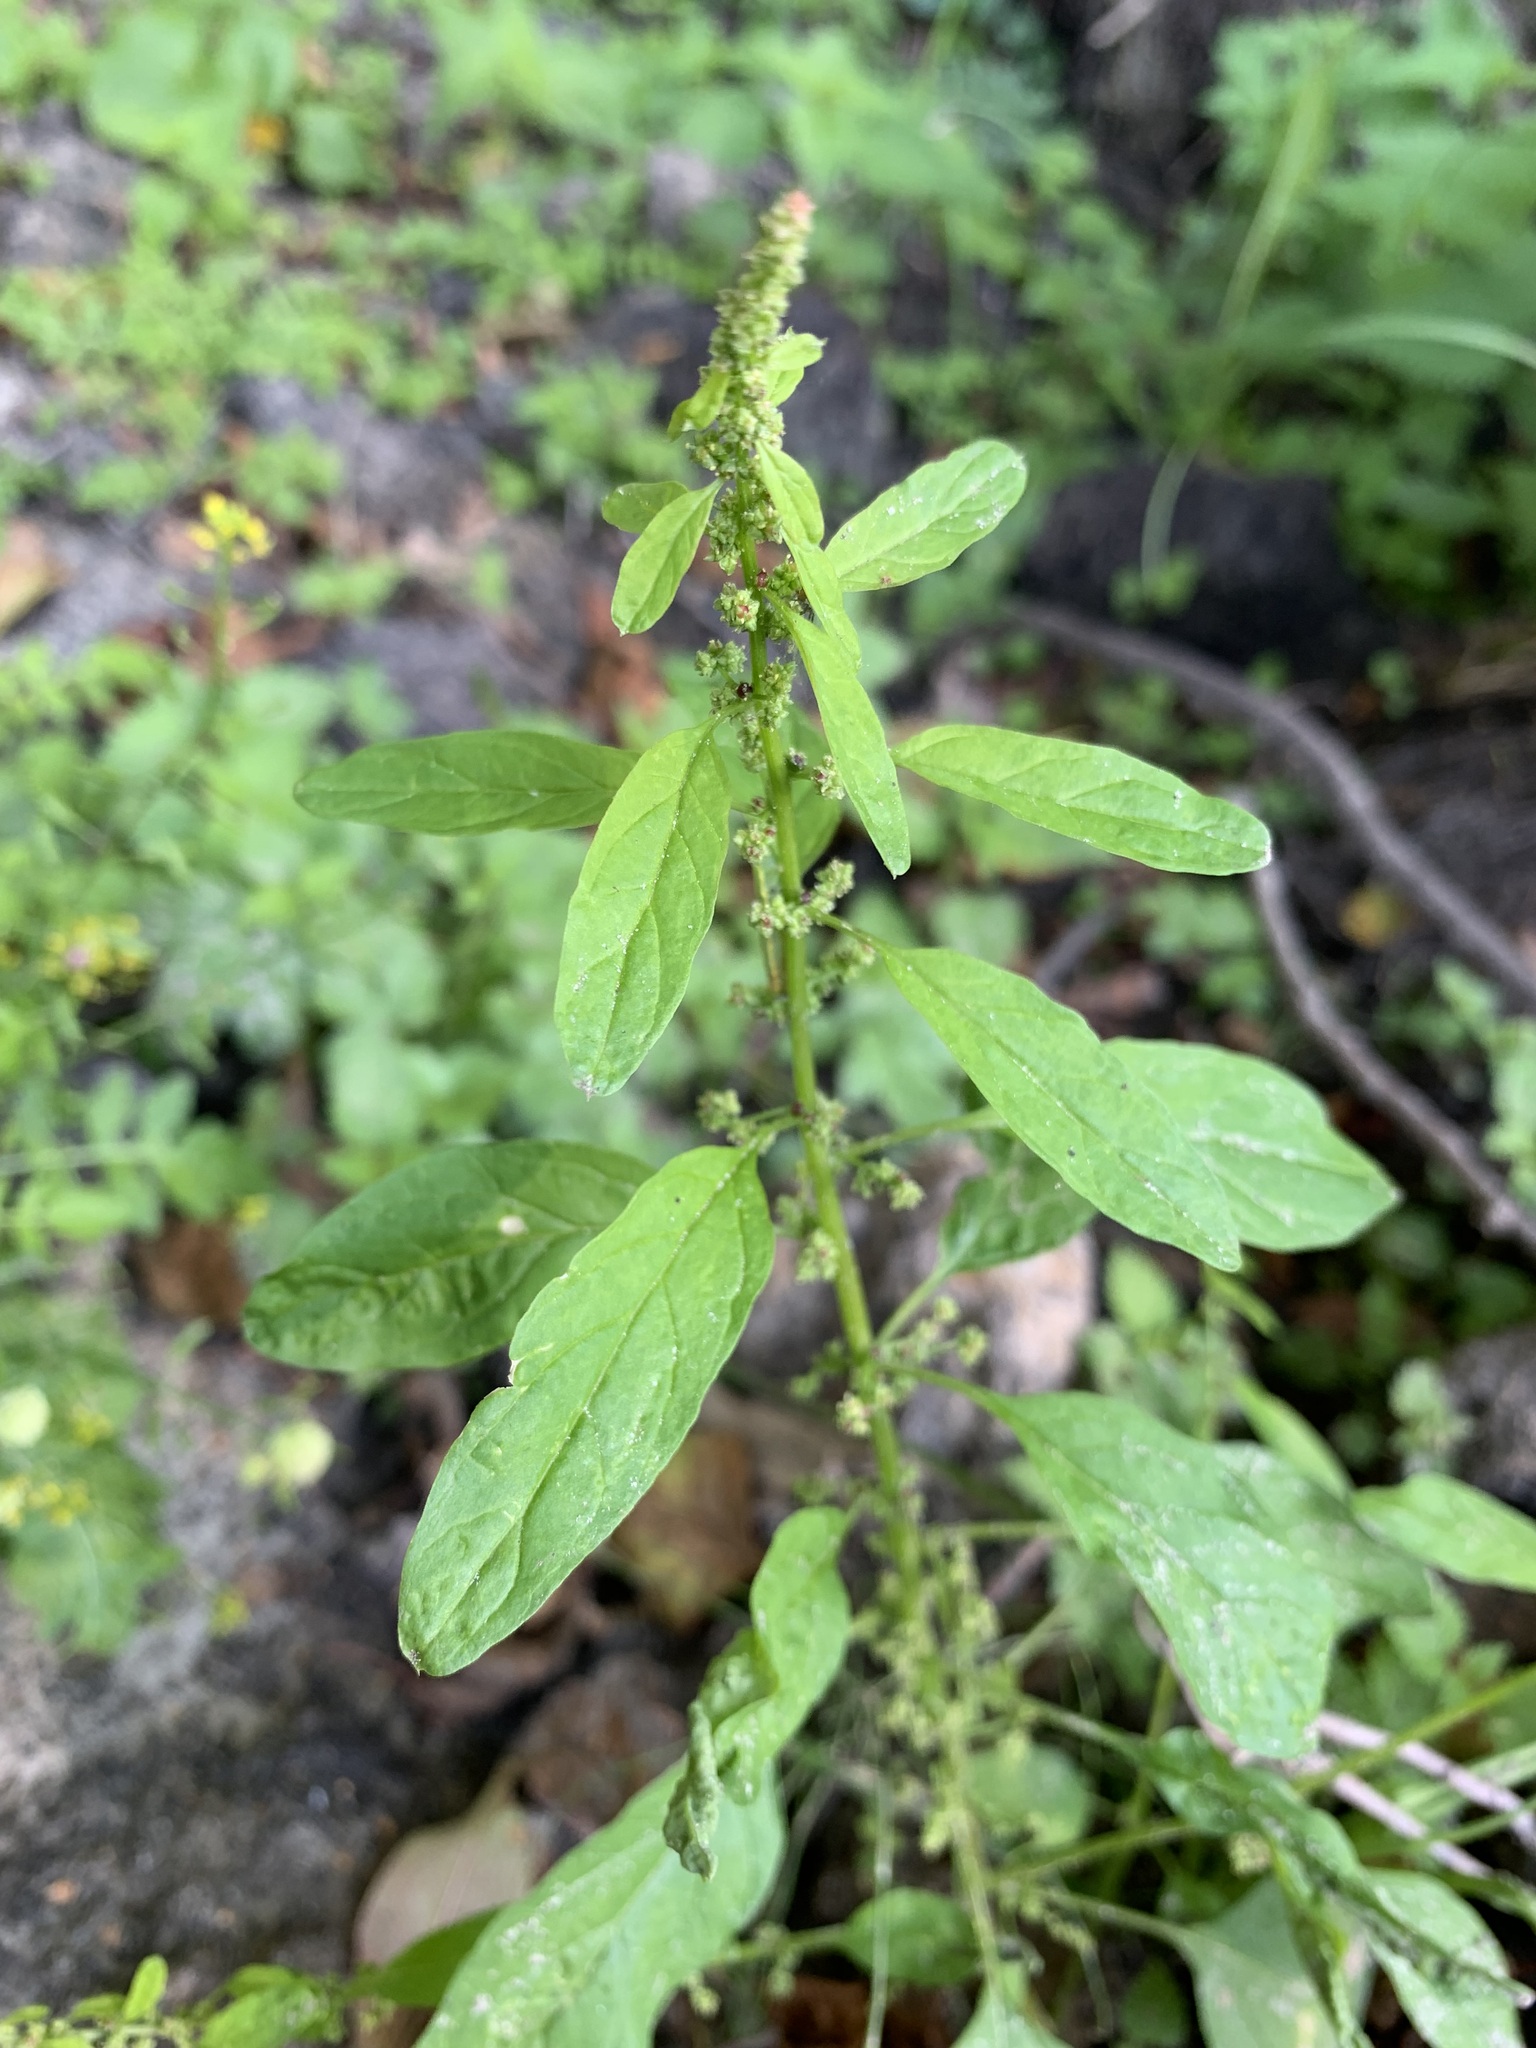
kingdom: Plantae
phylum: Tracheophyta
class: Magnoliopsida
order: Caryophyllales
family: Amaranthaceae
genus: Lipandra
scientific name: Lipandra polysperma
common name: Many-seed goosefoot
